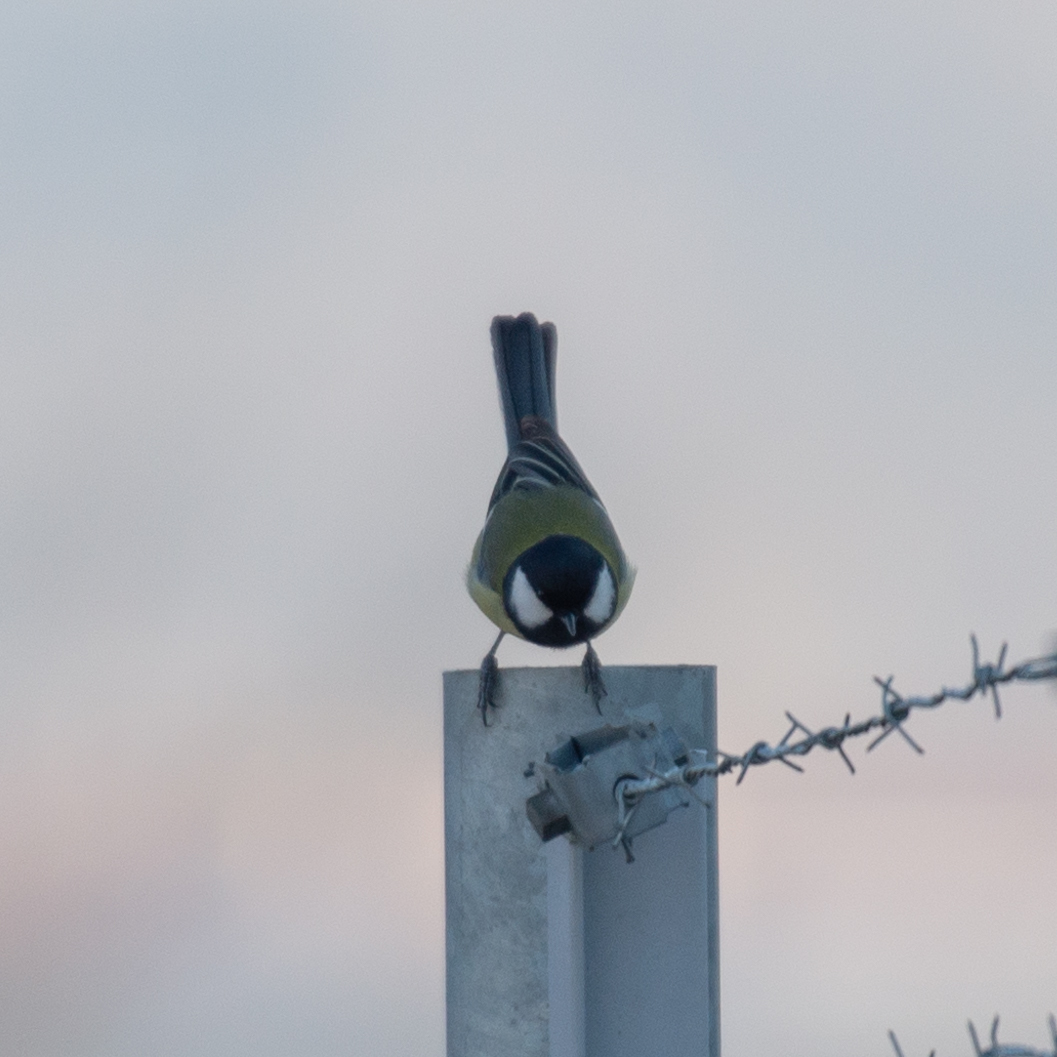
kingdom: Animalia
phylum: Chordata
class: Aves
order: Passeriformes
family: Paridae
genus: Parus
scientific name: Parus major
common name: Great tit
